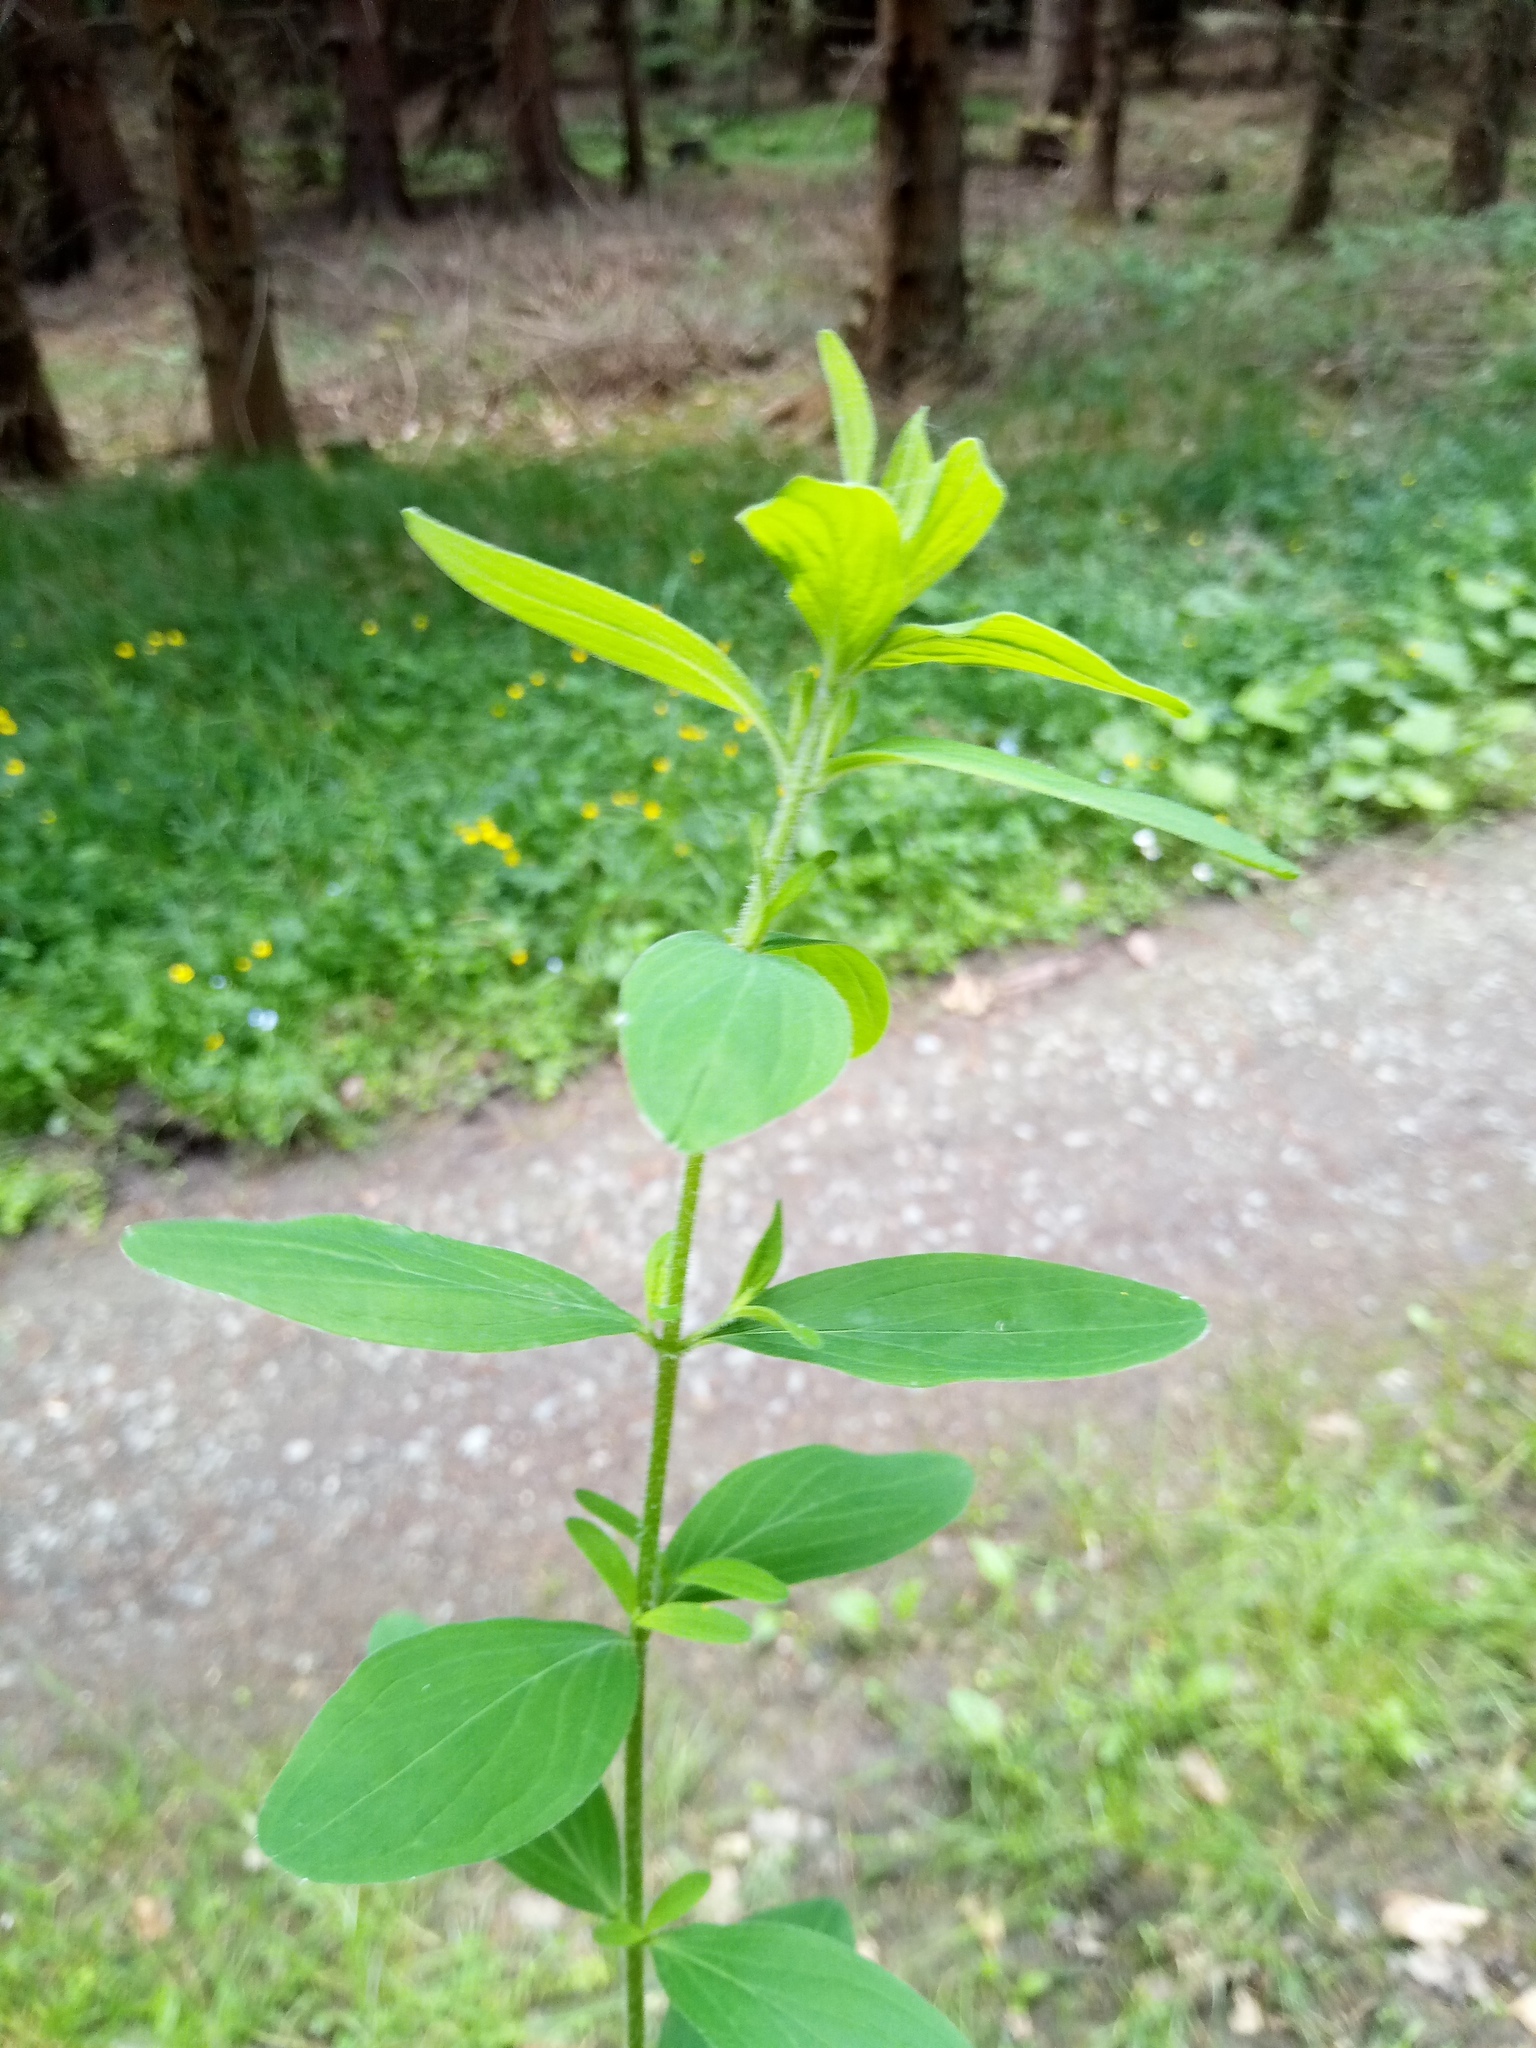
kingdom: Plantae
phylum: Tracheophyta
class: Magnoliopsida
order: Malpighiales
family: Hypericaceae
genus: Hypericum
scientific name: Hypericum hirsutum
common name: Hairy st. john's-wort
